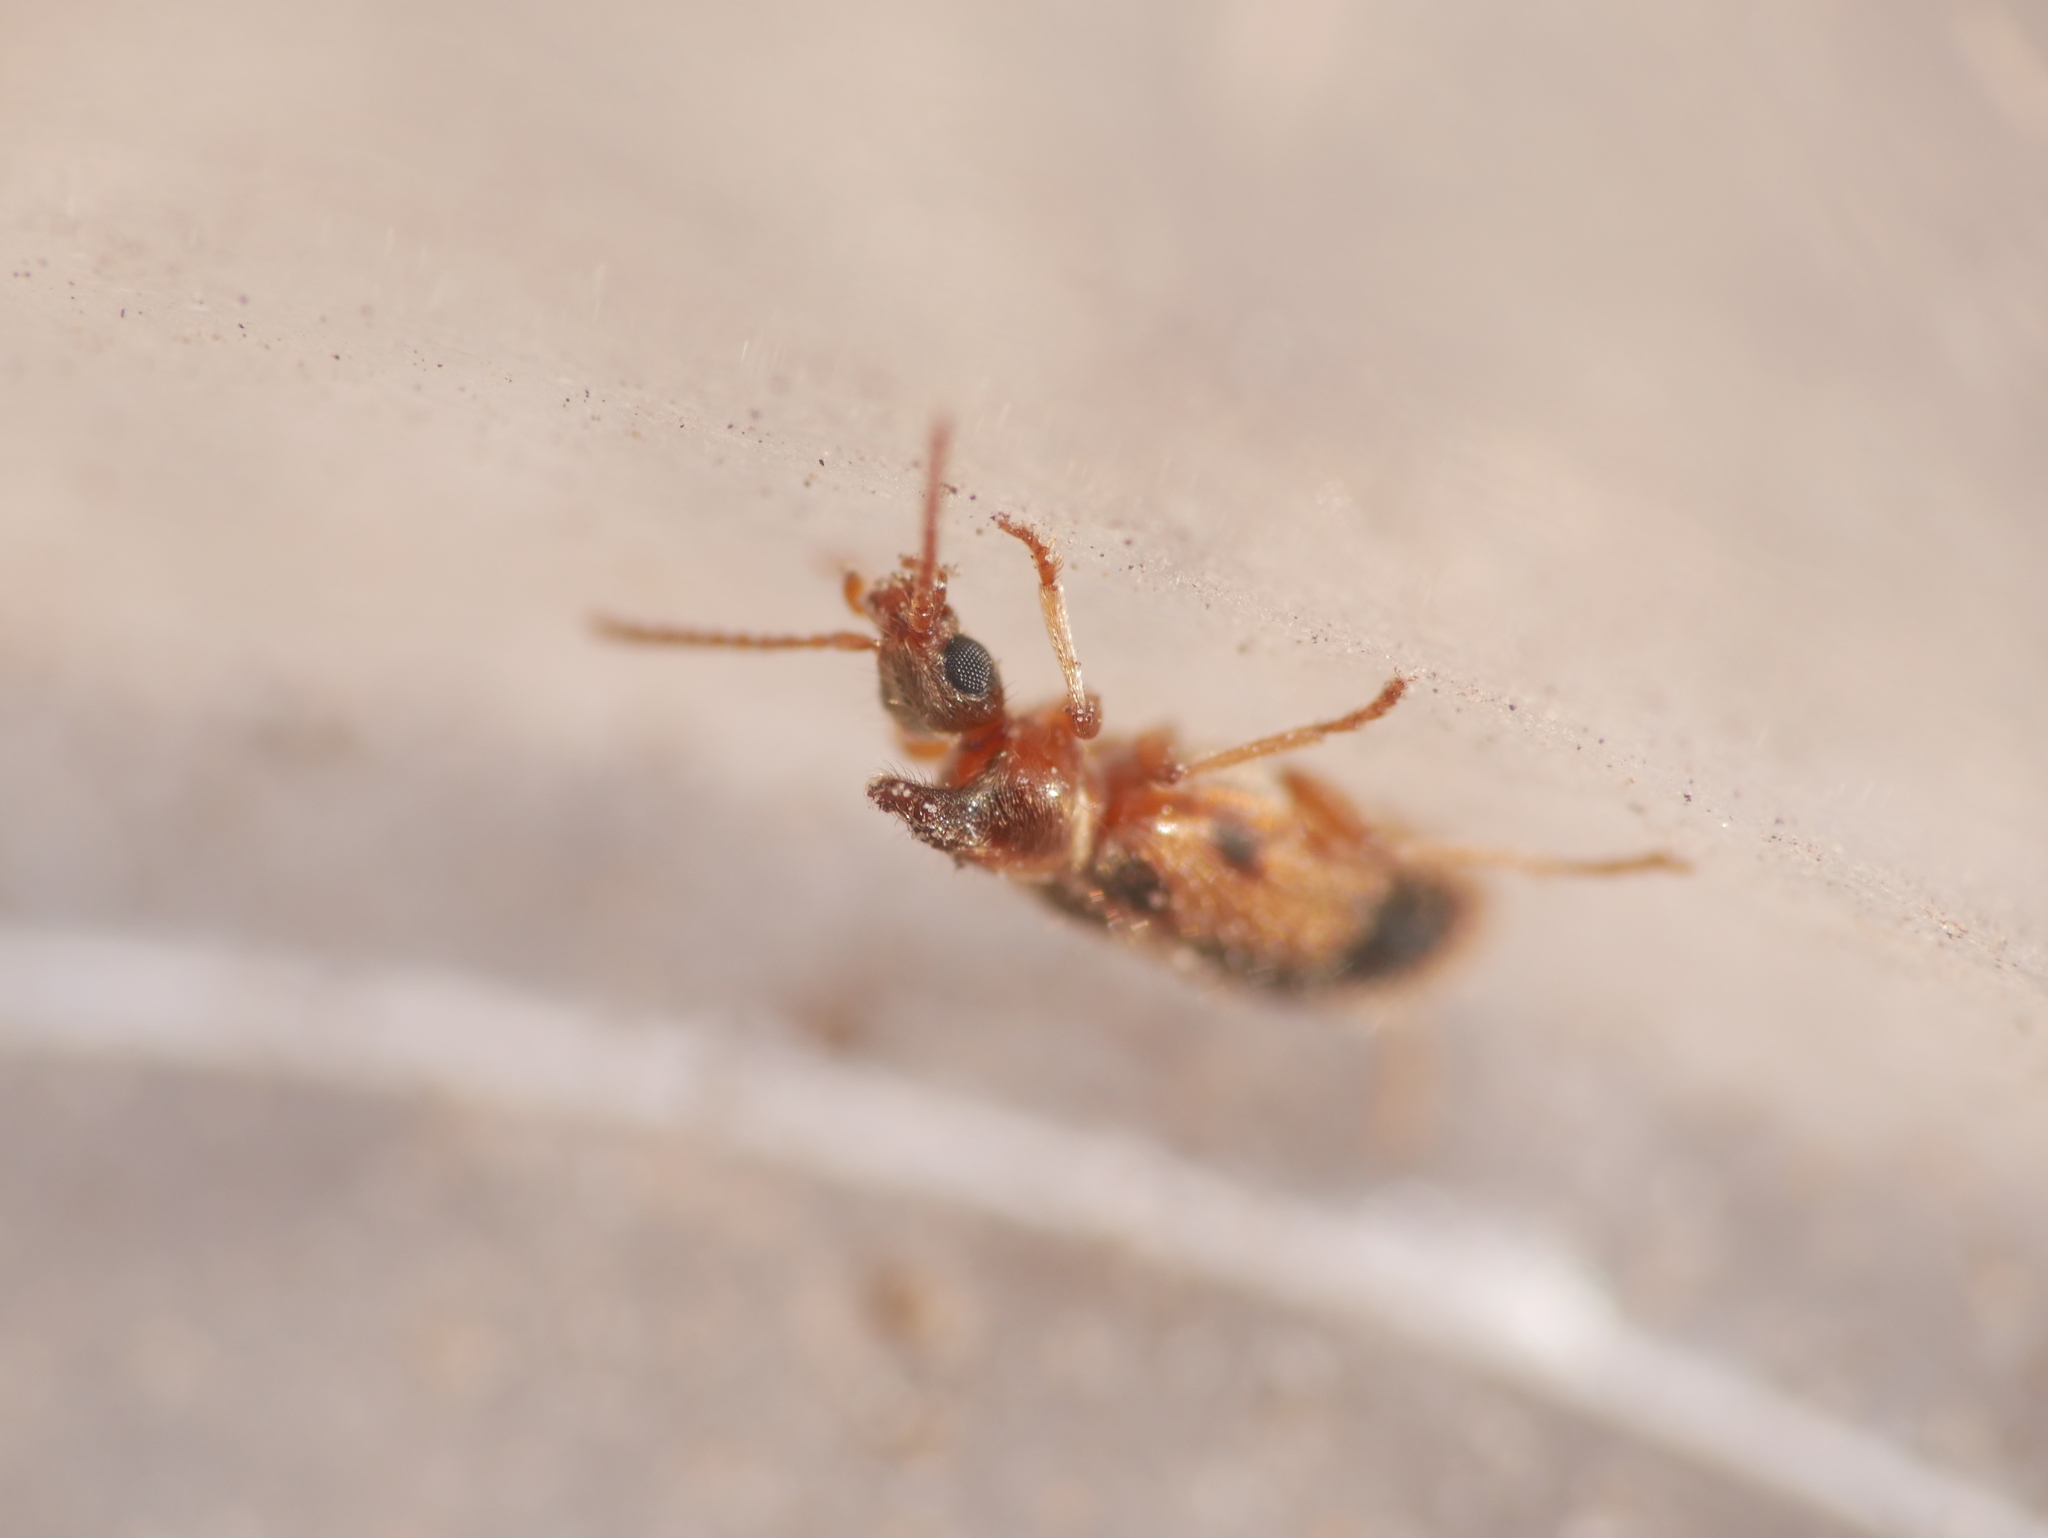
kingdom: Animalia
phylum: Arthropoda
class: Insecta
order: Coleoptera
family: Anthicidae
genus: Notoxus
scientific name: Notoxus monoceros
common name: Monoceros beetle
